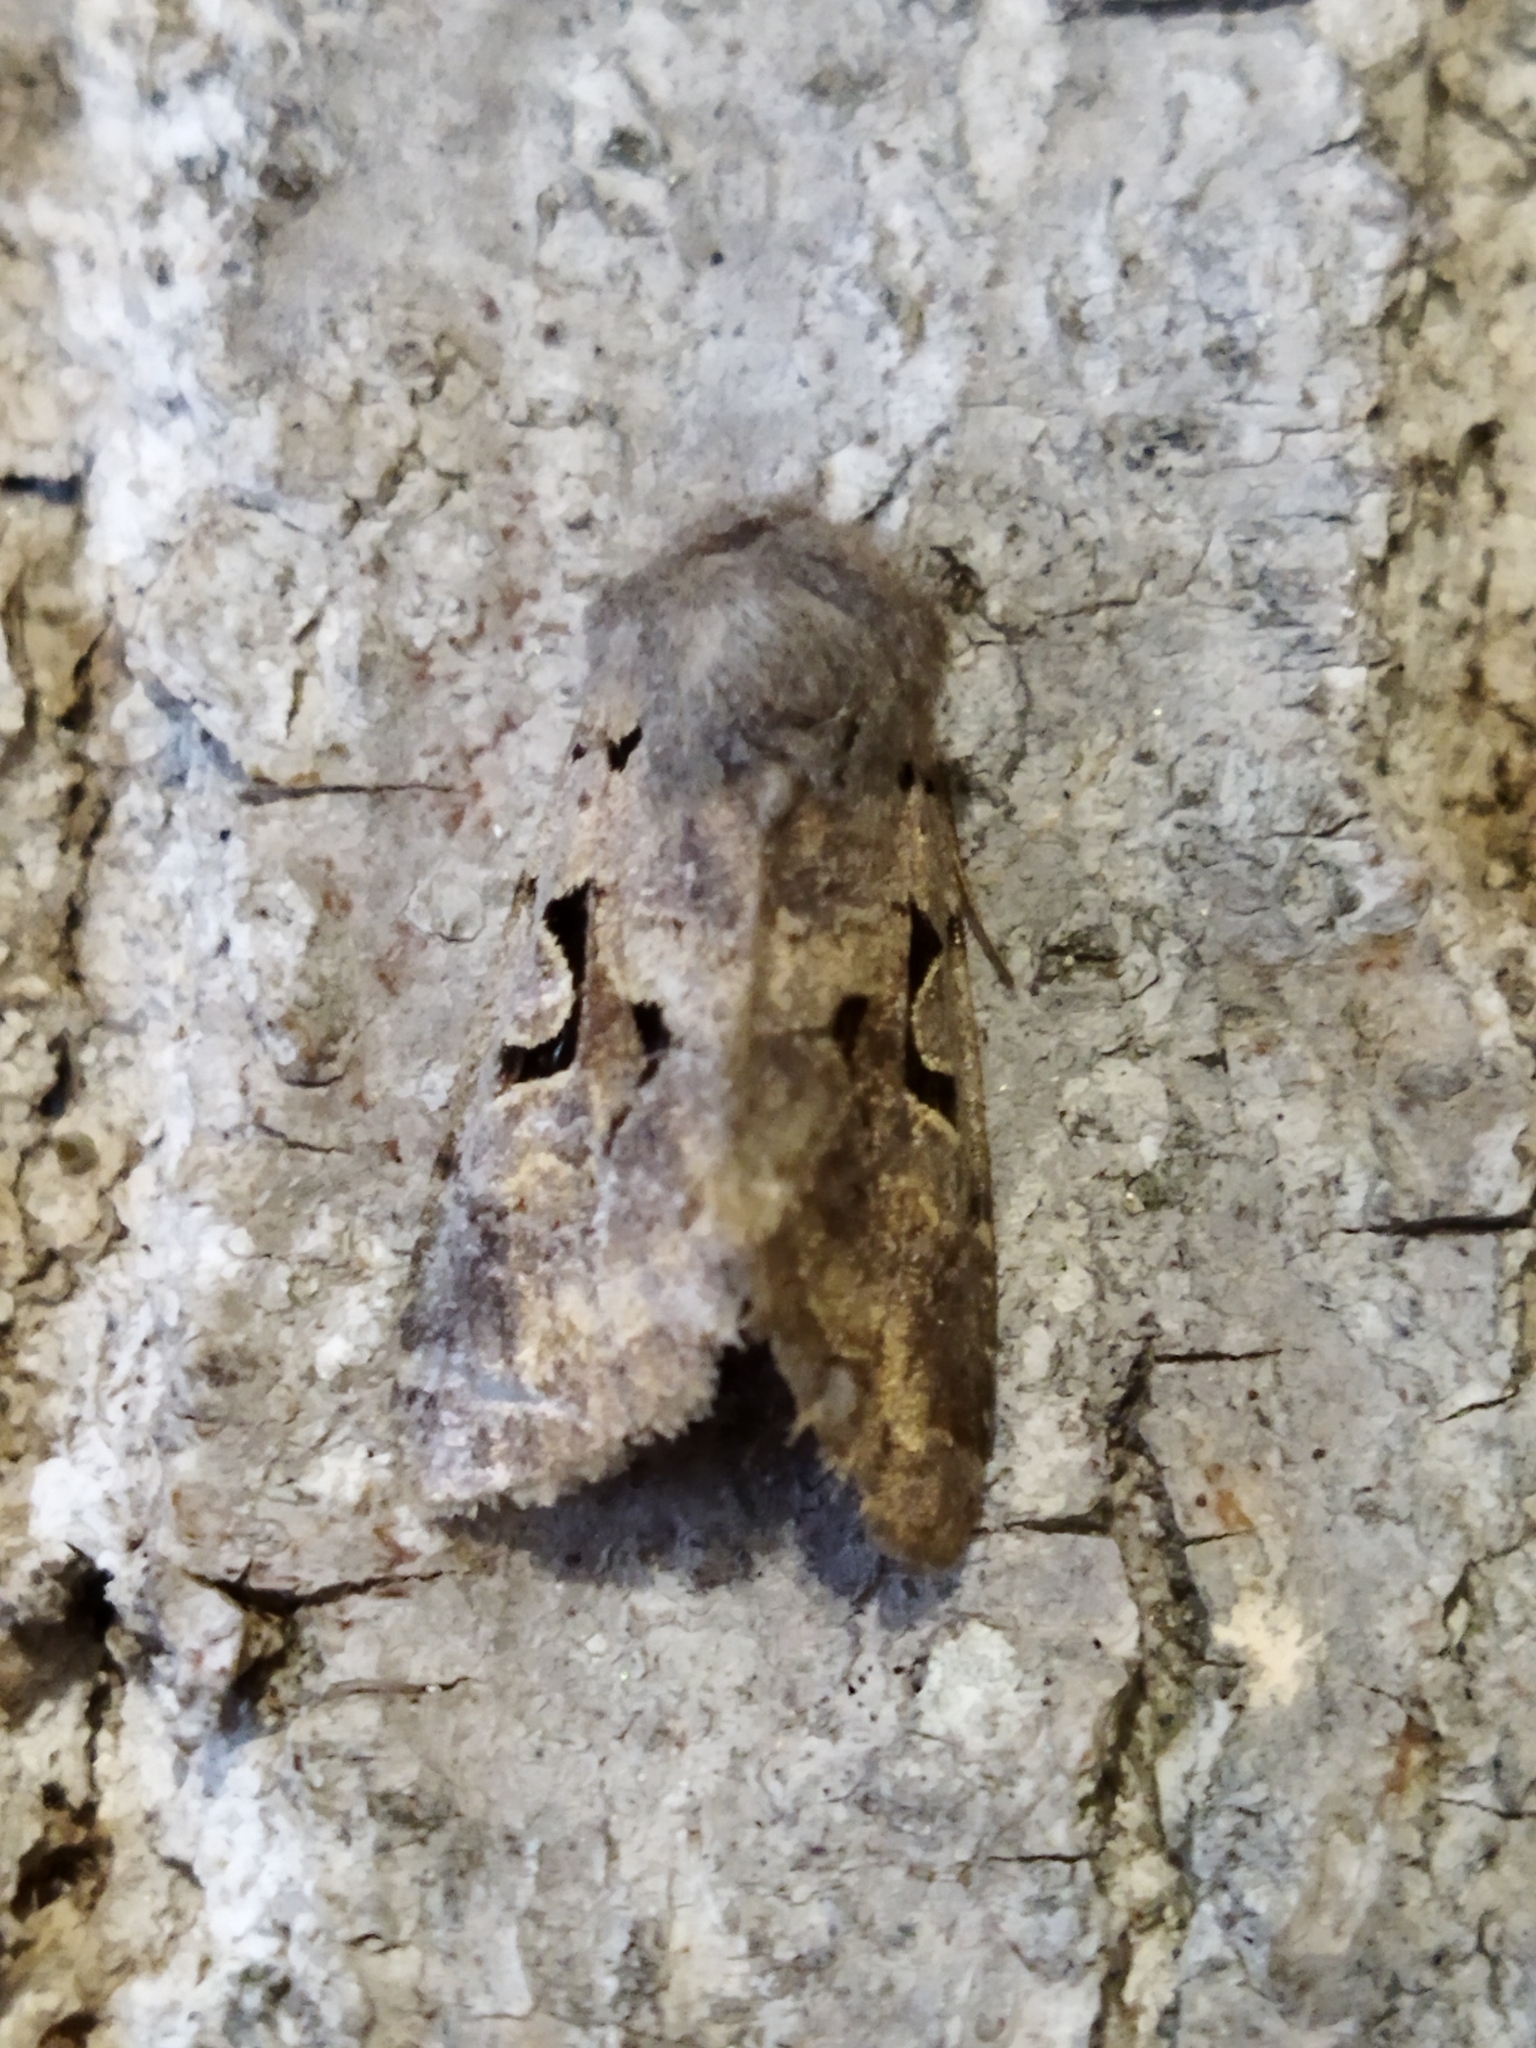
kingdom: Animalia
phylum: Arthropoda
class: Insecta
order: Lepidoptera
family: Noctuidae
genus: Orthosia
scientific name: Orthosia gothica
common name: Hebrew character
